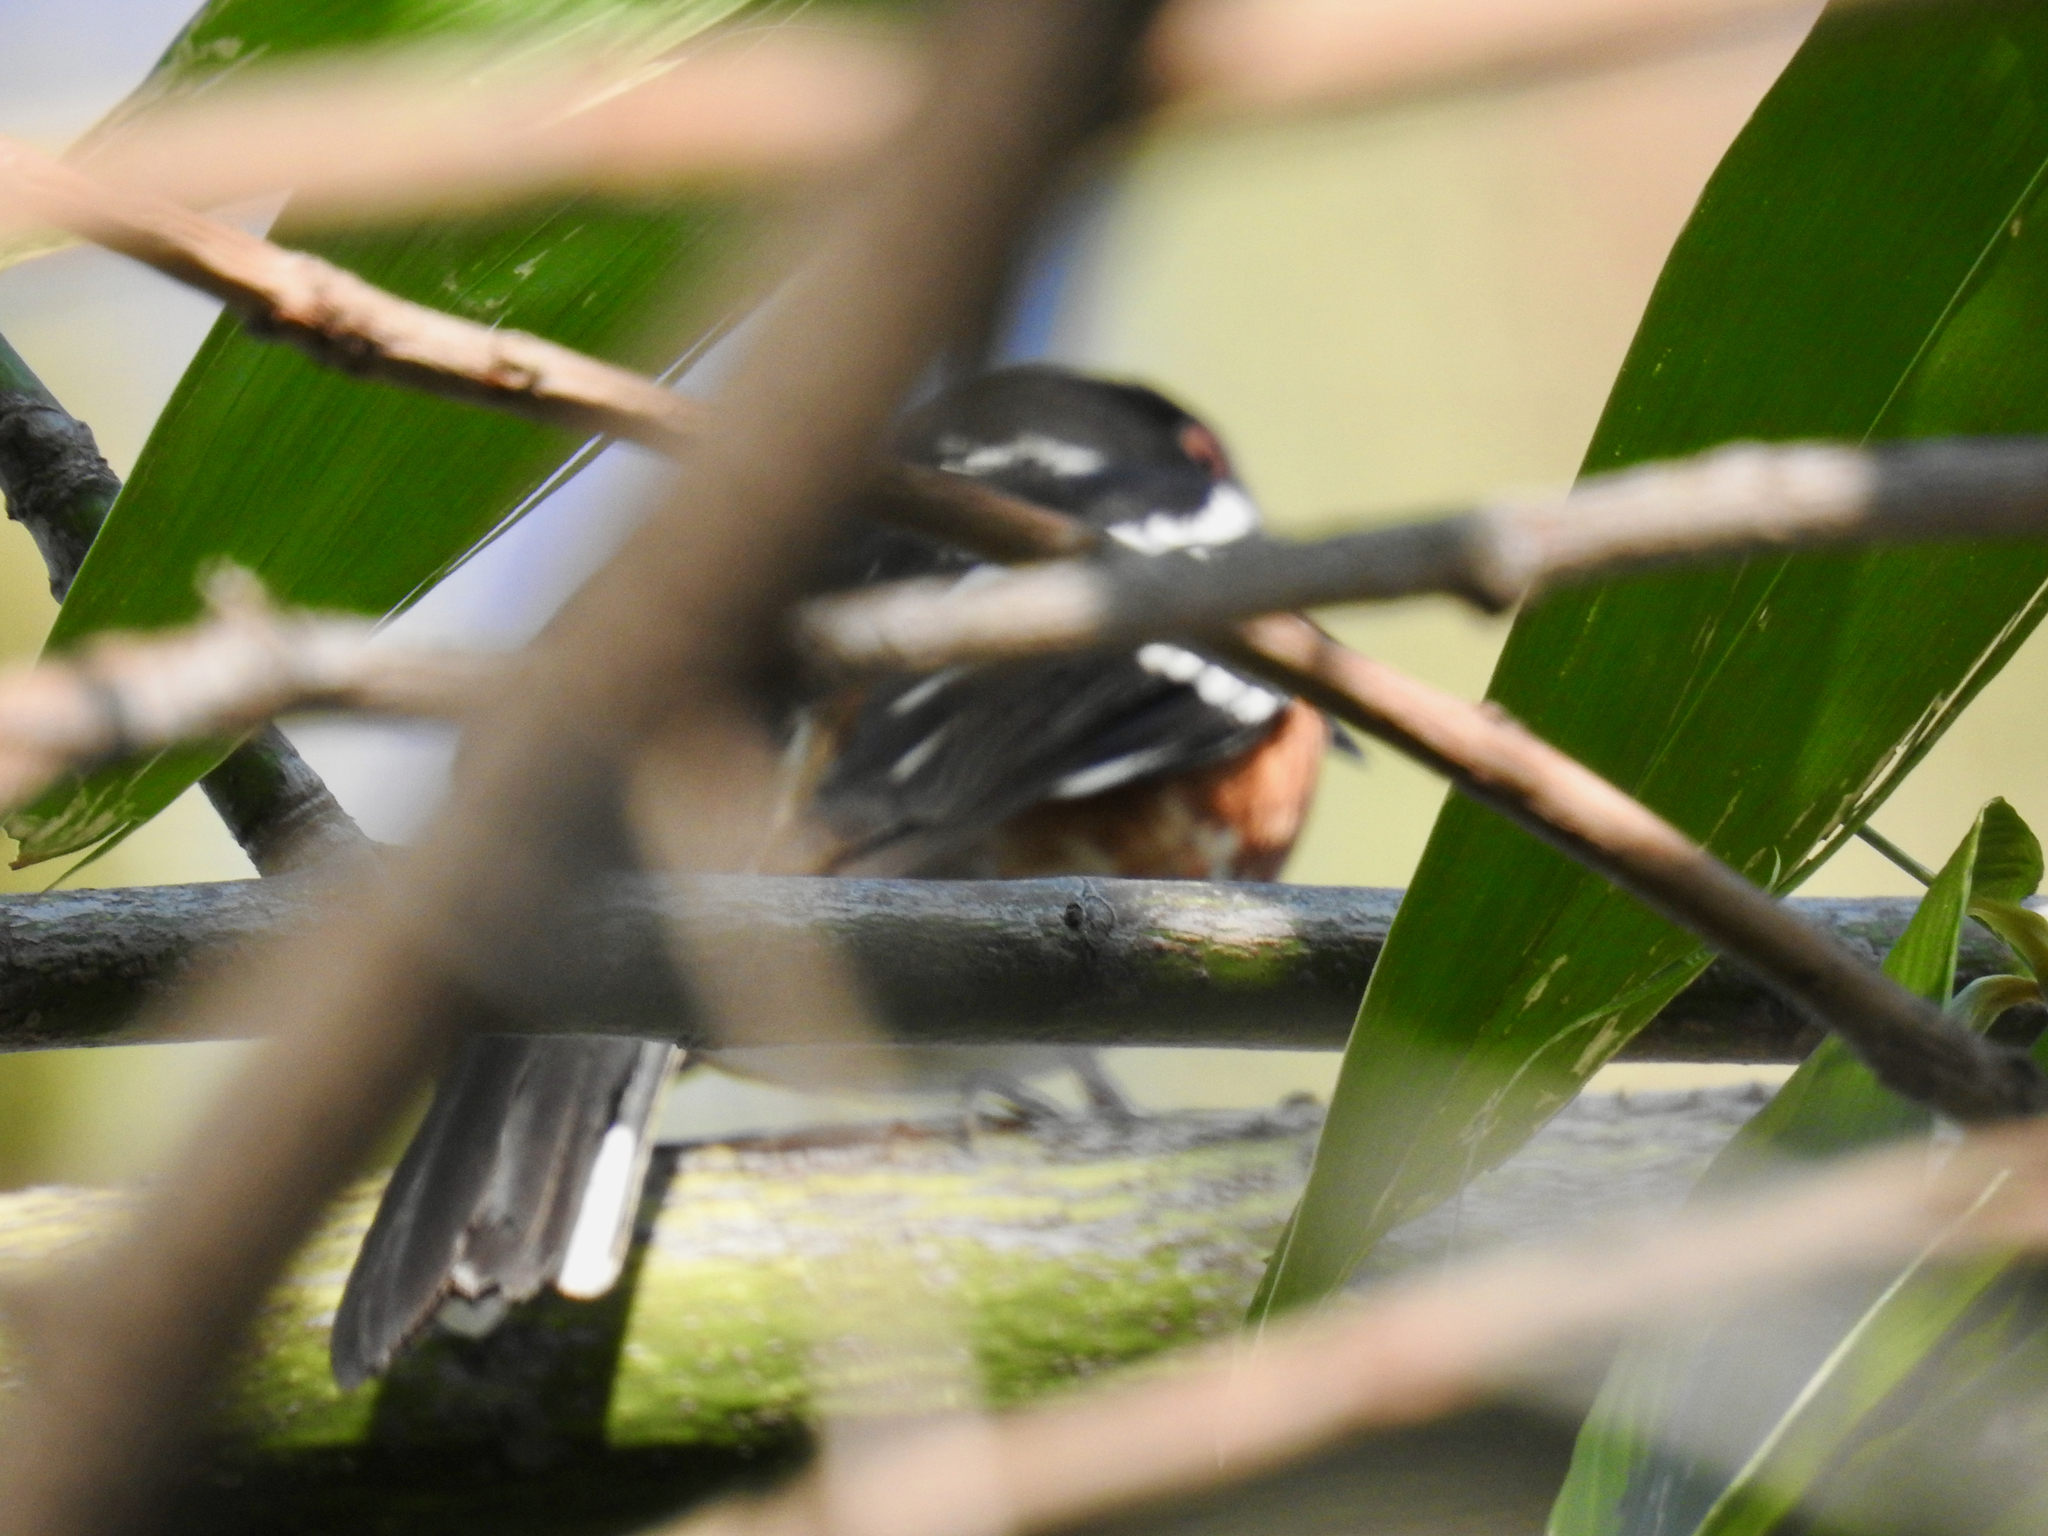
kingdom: Animalia
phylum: Chordata
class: Aves
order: Passeriformes
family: Passerellidae
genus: Pipilo
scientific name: Pipilo maculatus
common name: Spotted towhee
